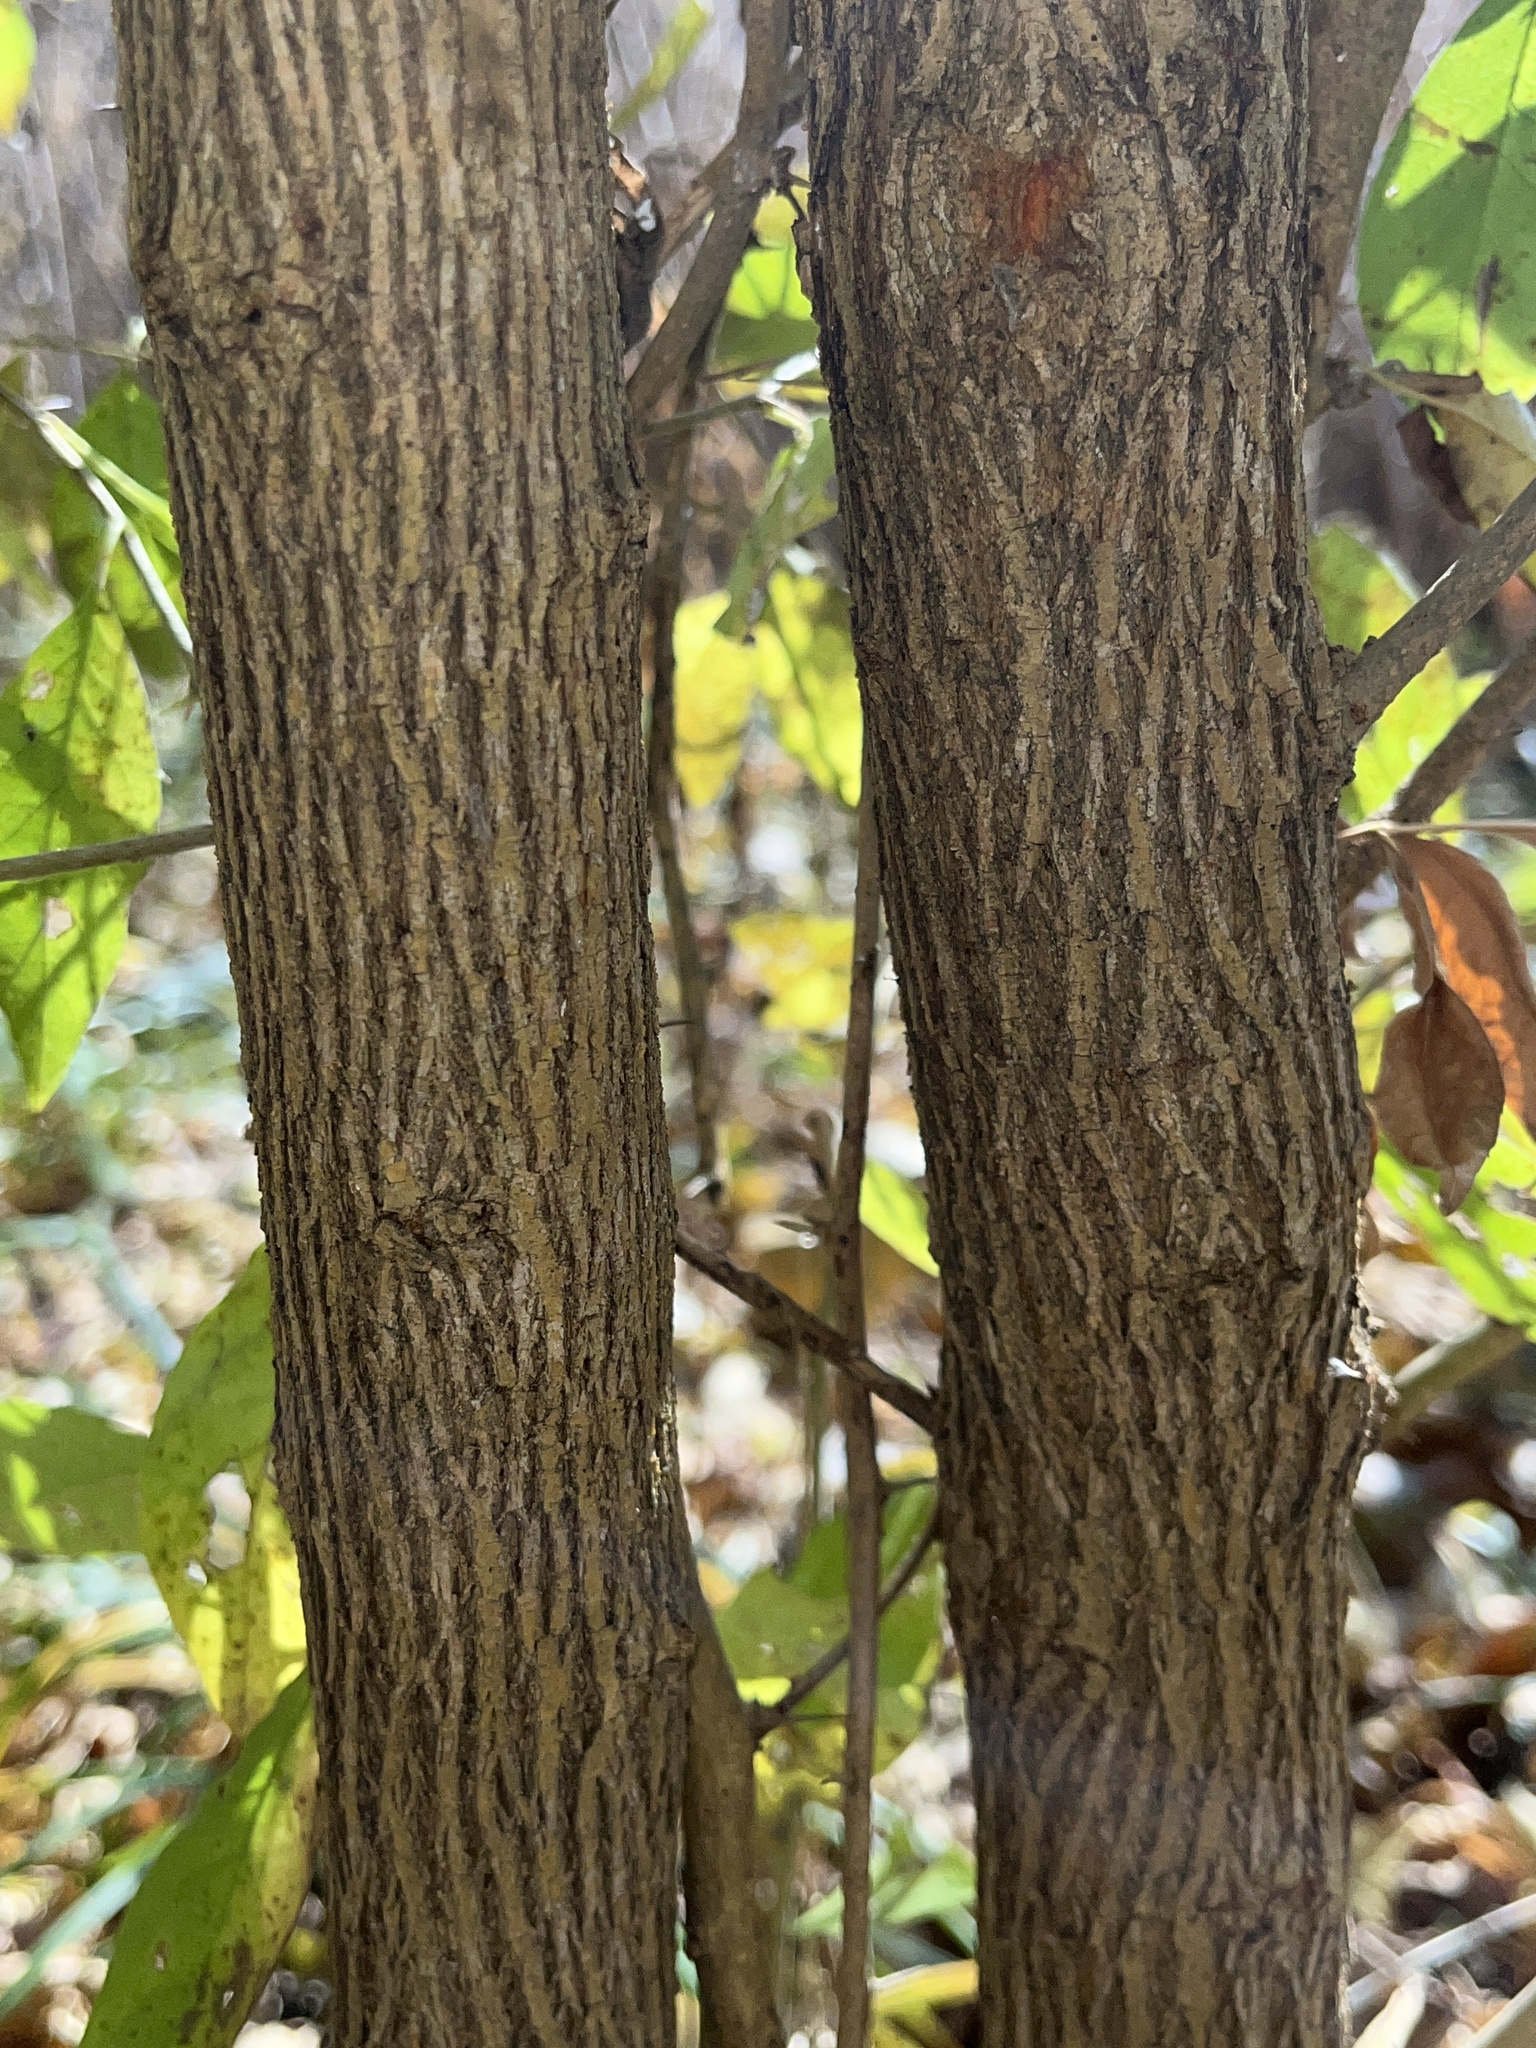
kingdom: Plantae
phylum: Tracheophyta
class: Magnoliopsida
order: Rosales
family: Moraceae
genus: Maclura
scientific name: Maclura pomifera
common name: Osage-orange
